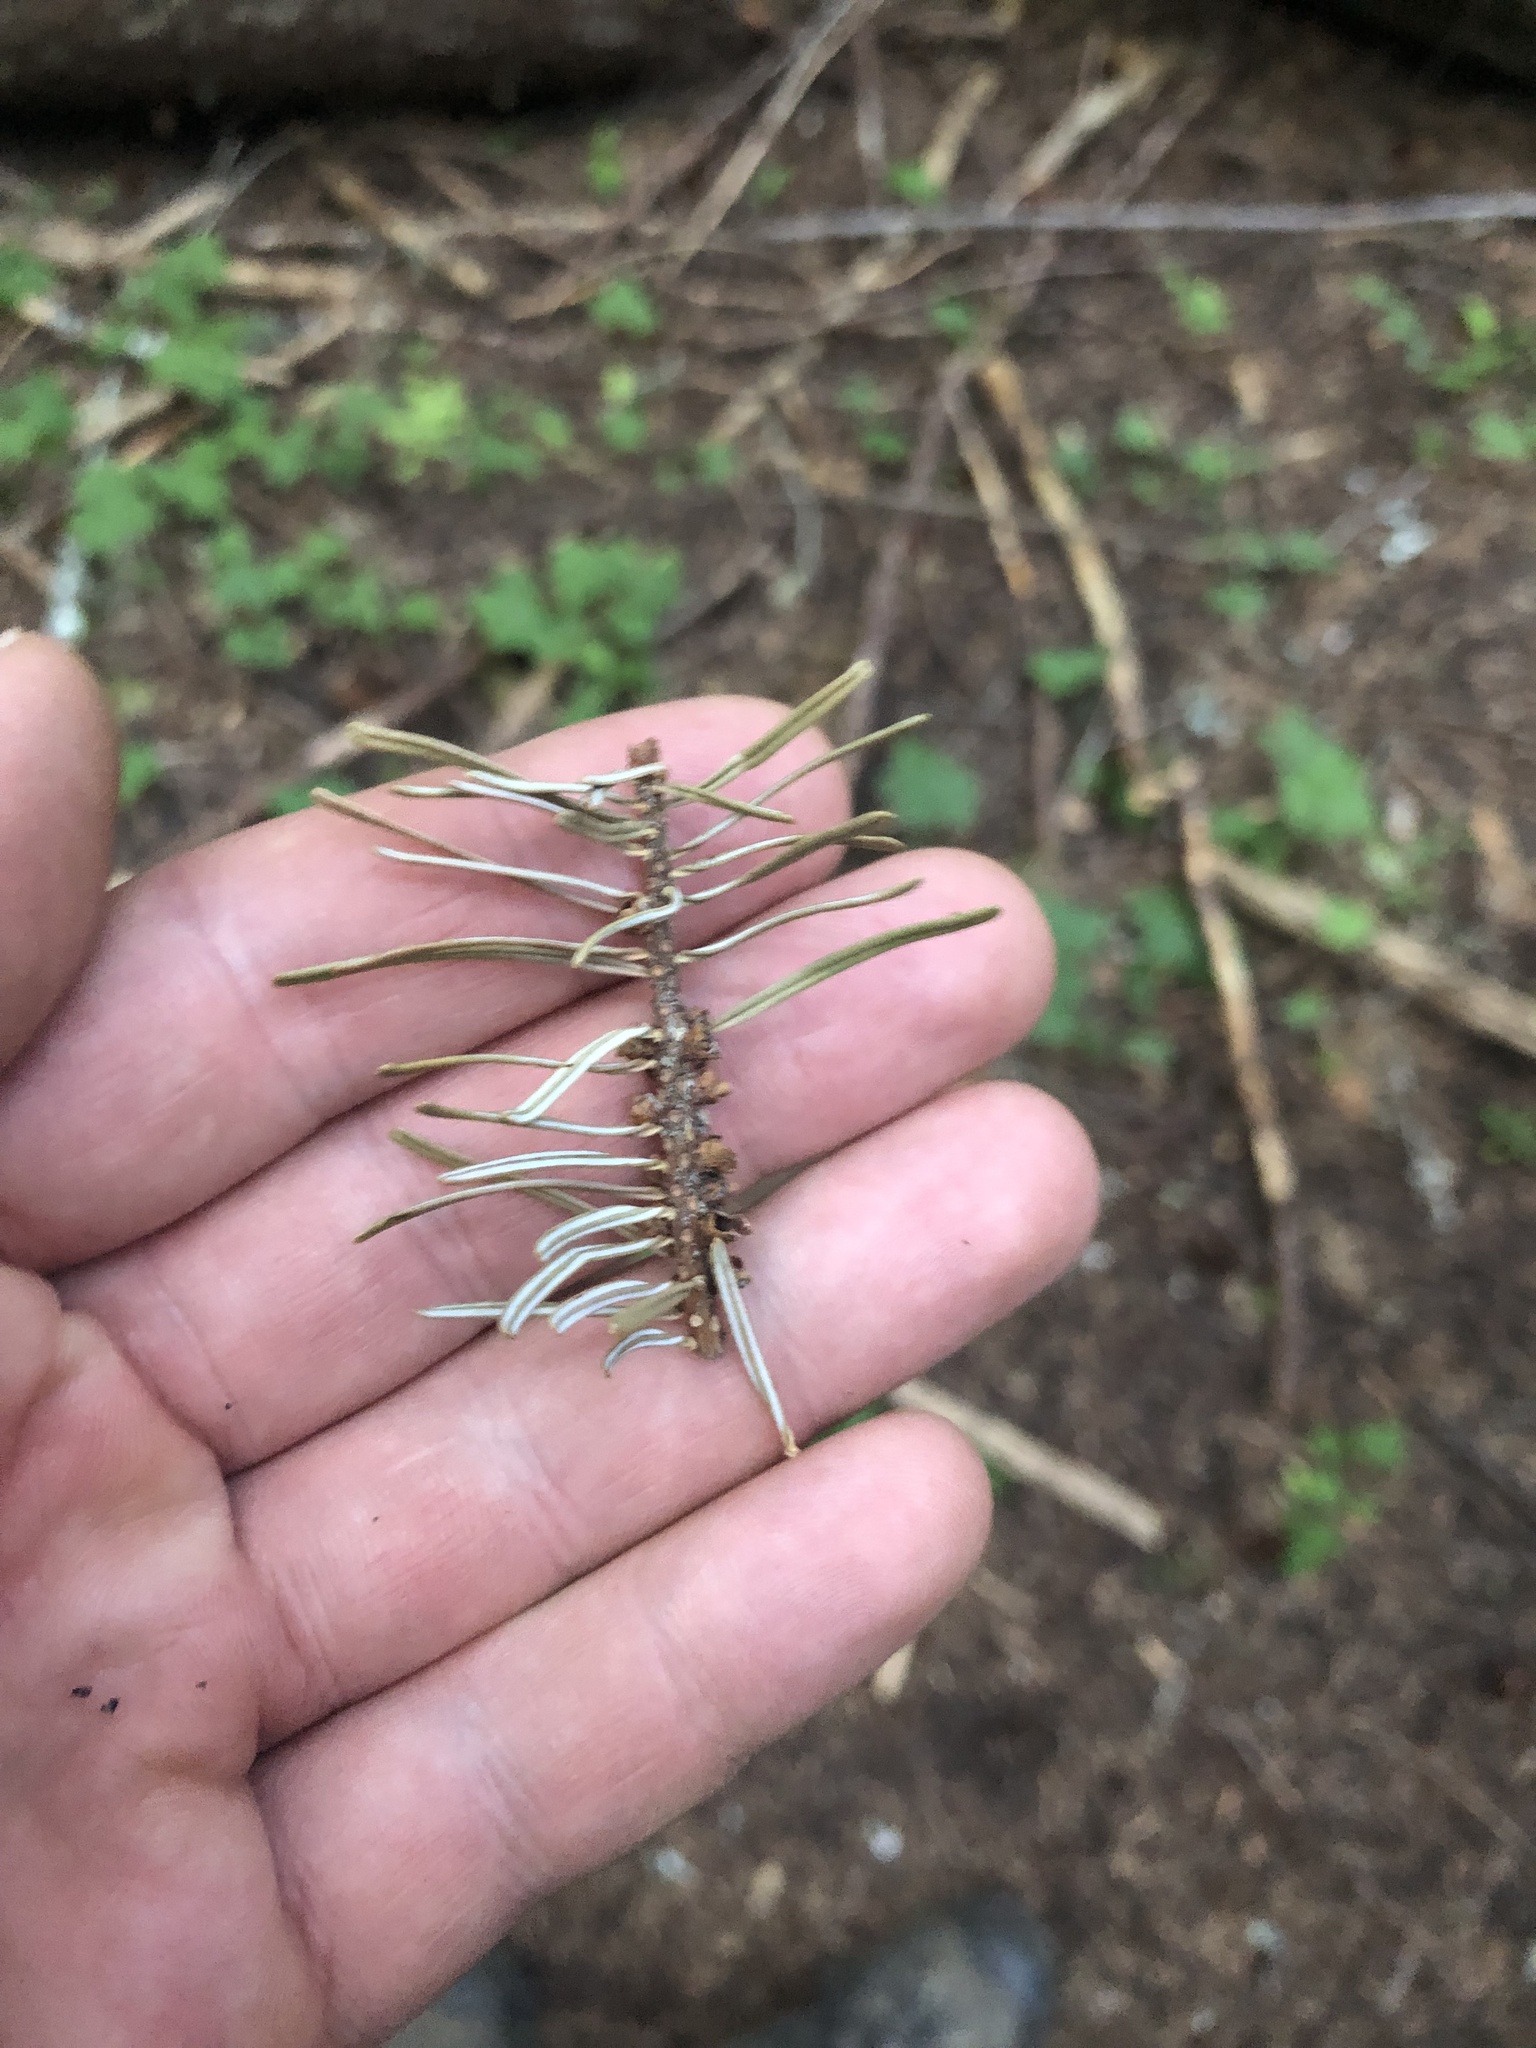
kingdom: Plantae
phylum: Tracheophyta
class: Pinopsida
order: Pinales
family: Pinaceae
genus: Abies
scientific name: Abies grandis
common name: Giant fir
